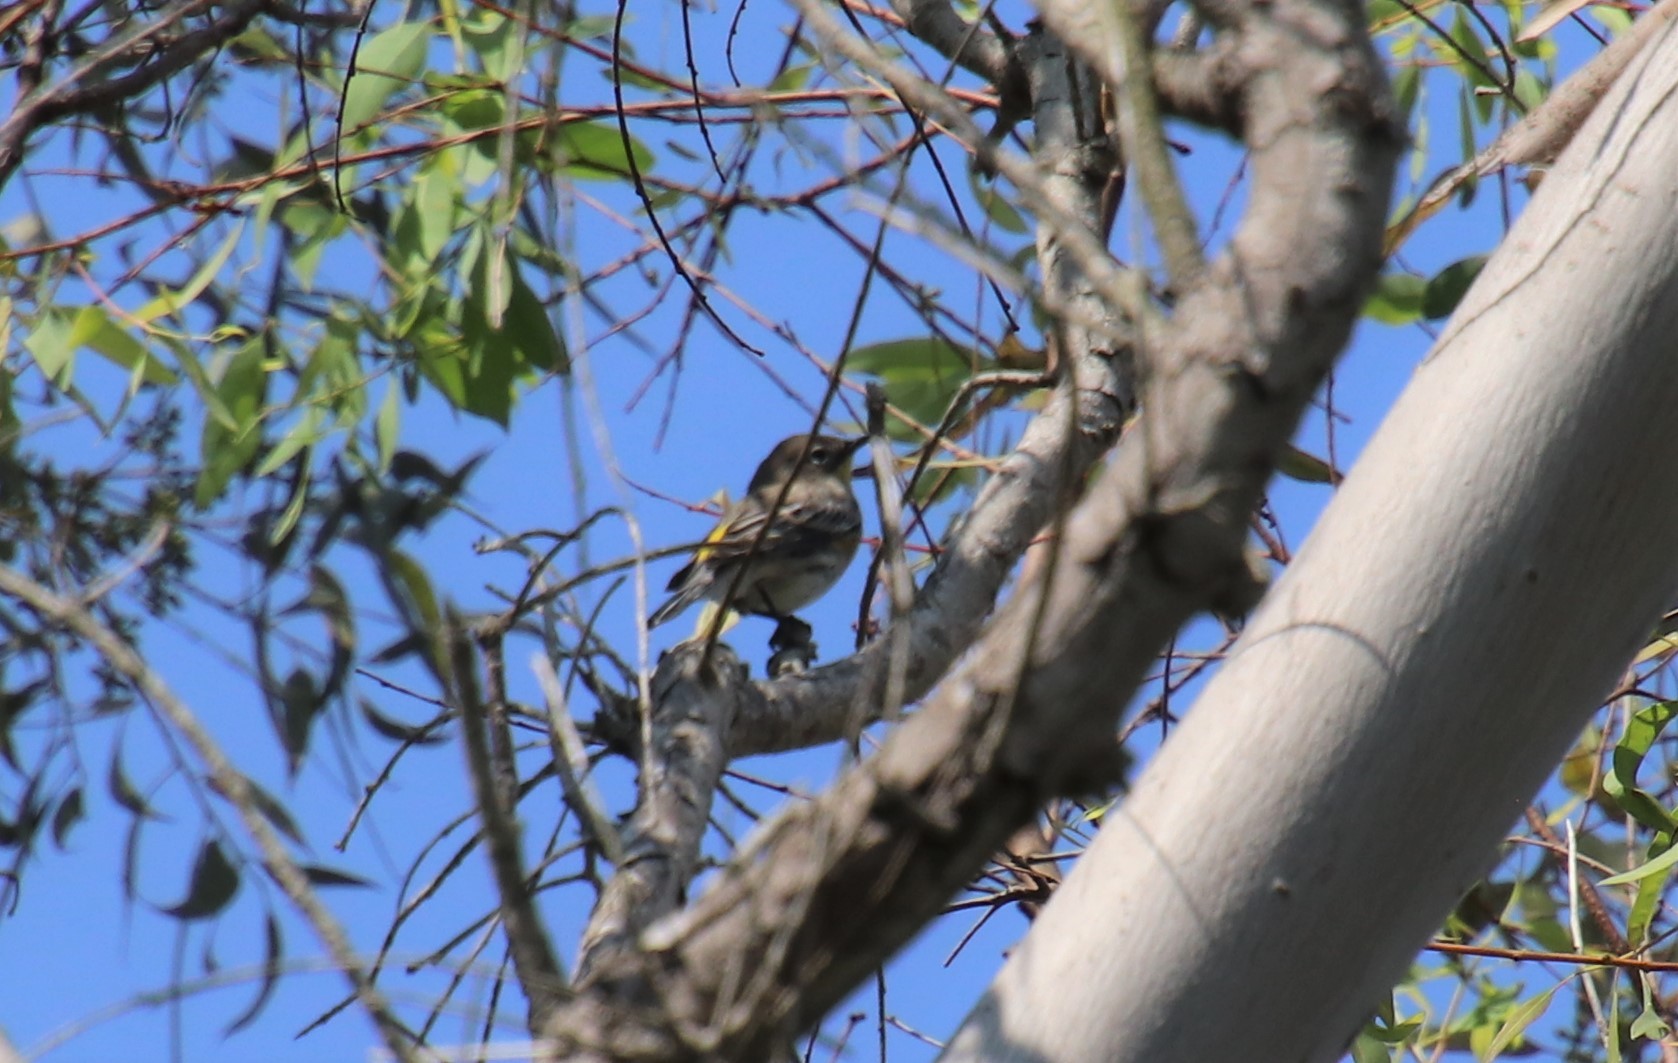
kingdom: Animalia
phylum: Chordata
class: Aves
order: Passeriformes
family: Parulidae
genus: Setophaga
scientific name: Setophaga auduboni
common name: Audubon's warbler
